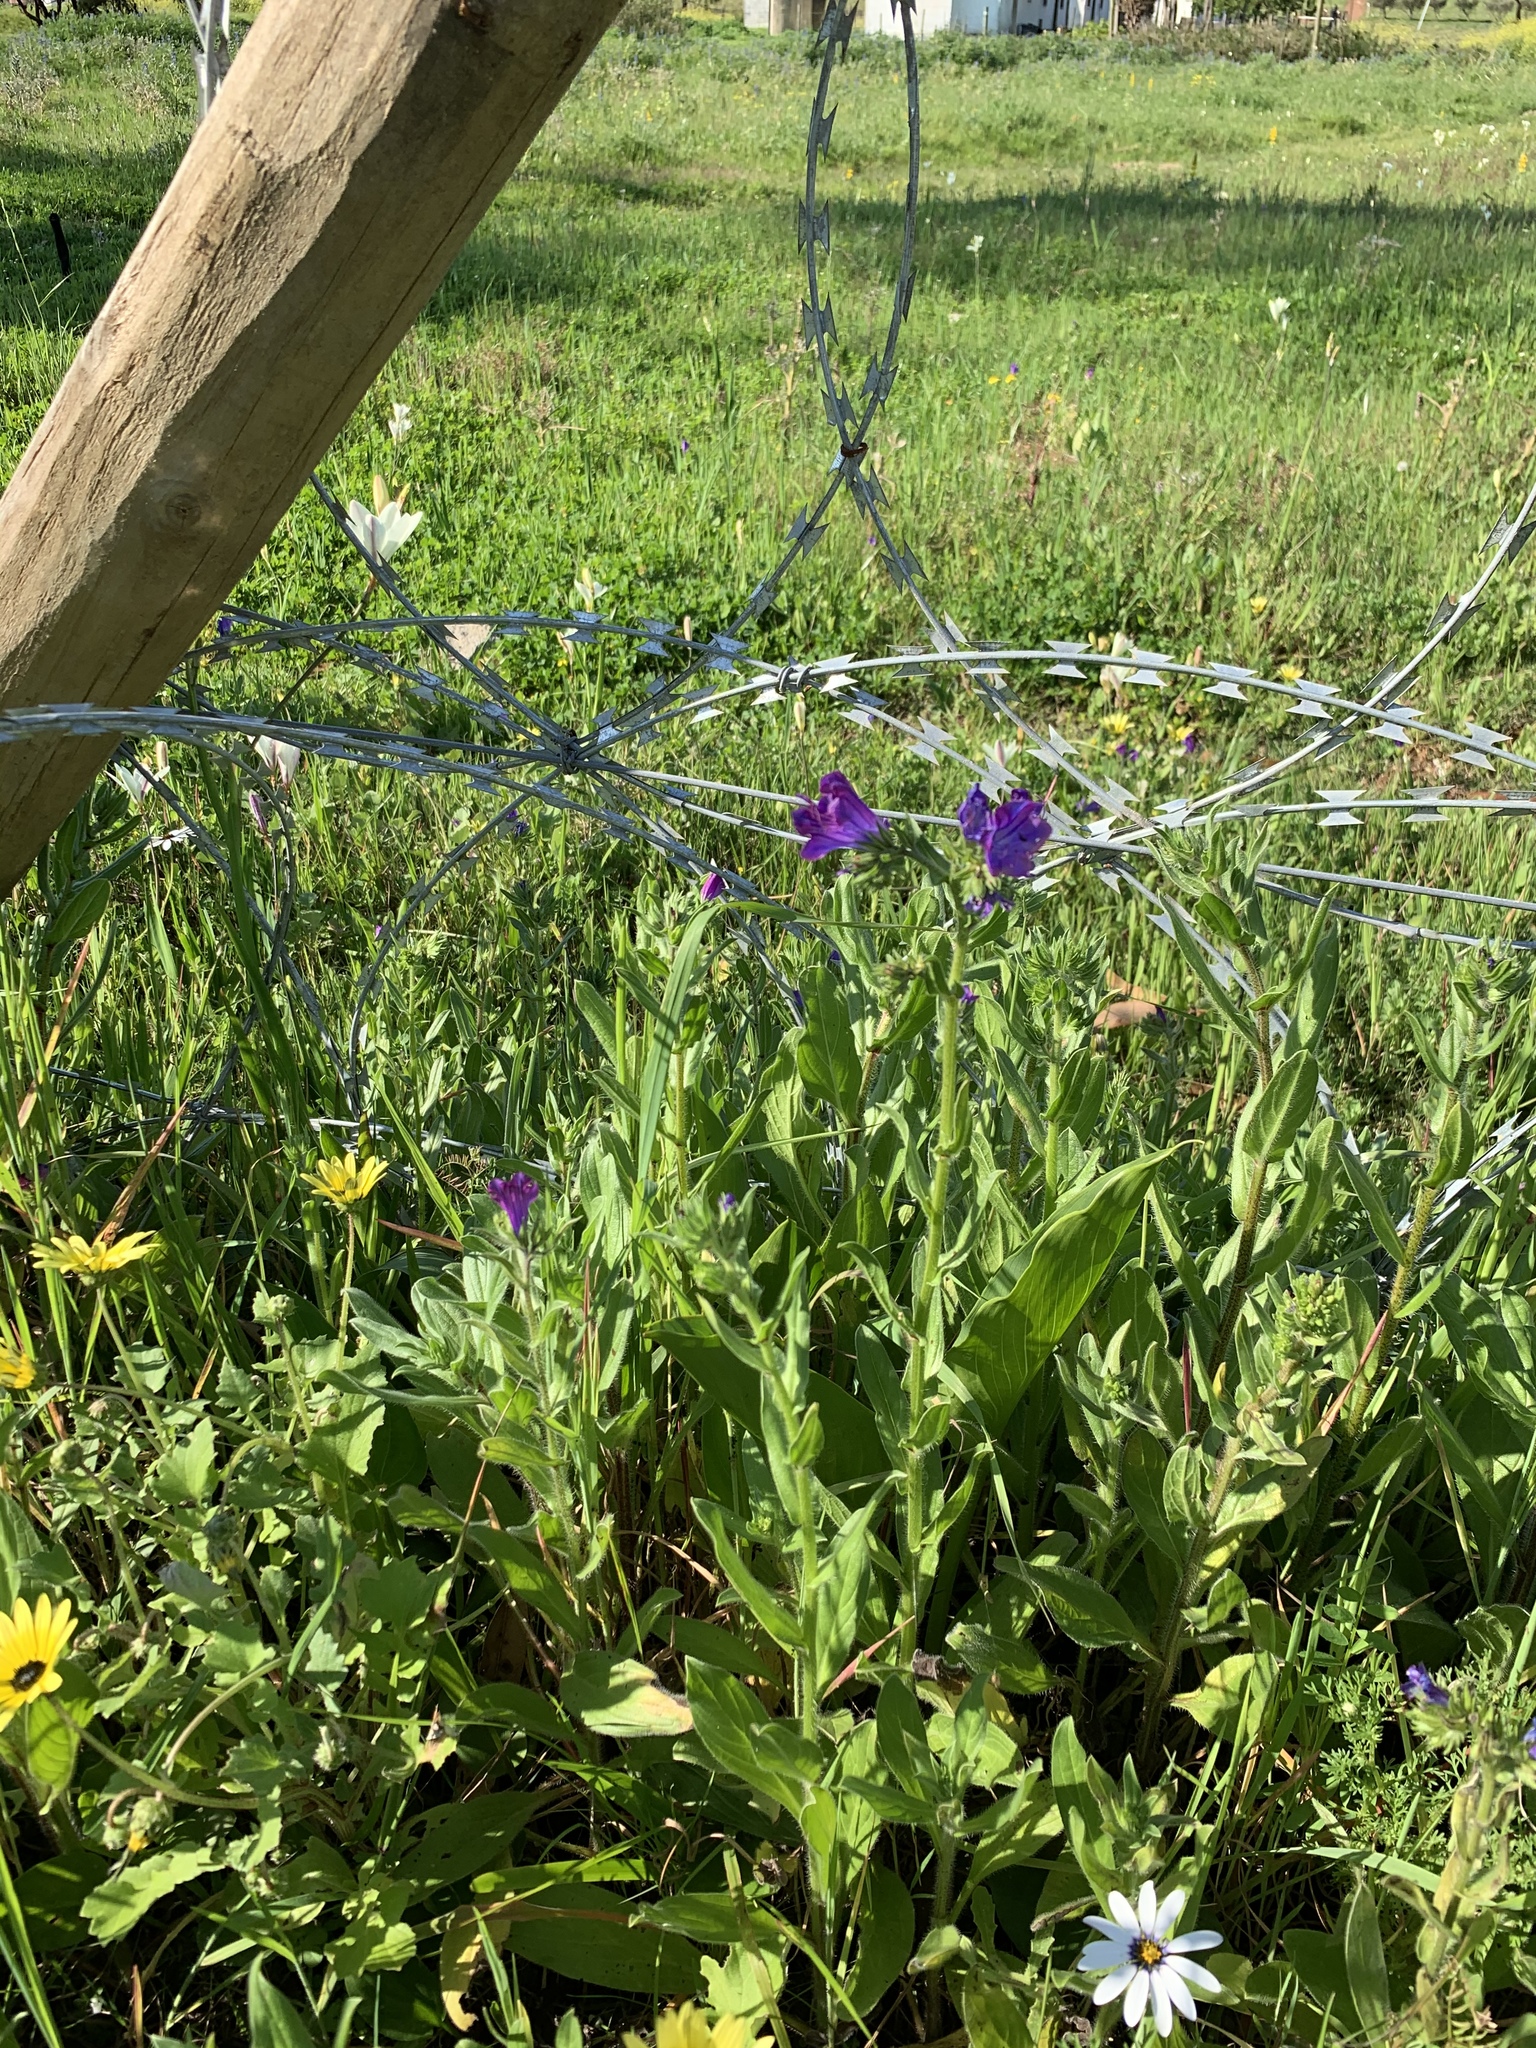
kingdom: Plantae
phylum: Tracheophyta
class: Magnoliopsida
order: Boraginales
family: Boraginaceae
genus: Echium
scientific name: Echium plantagineum
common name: Purple viper's-bugloss
